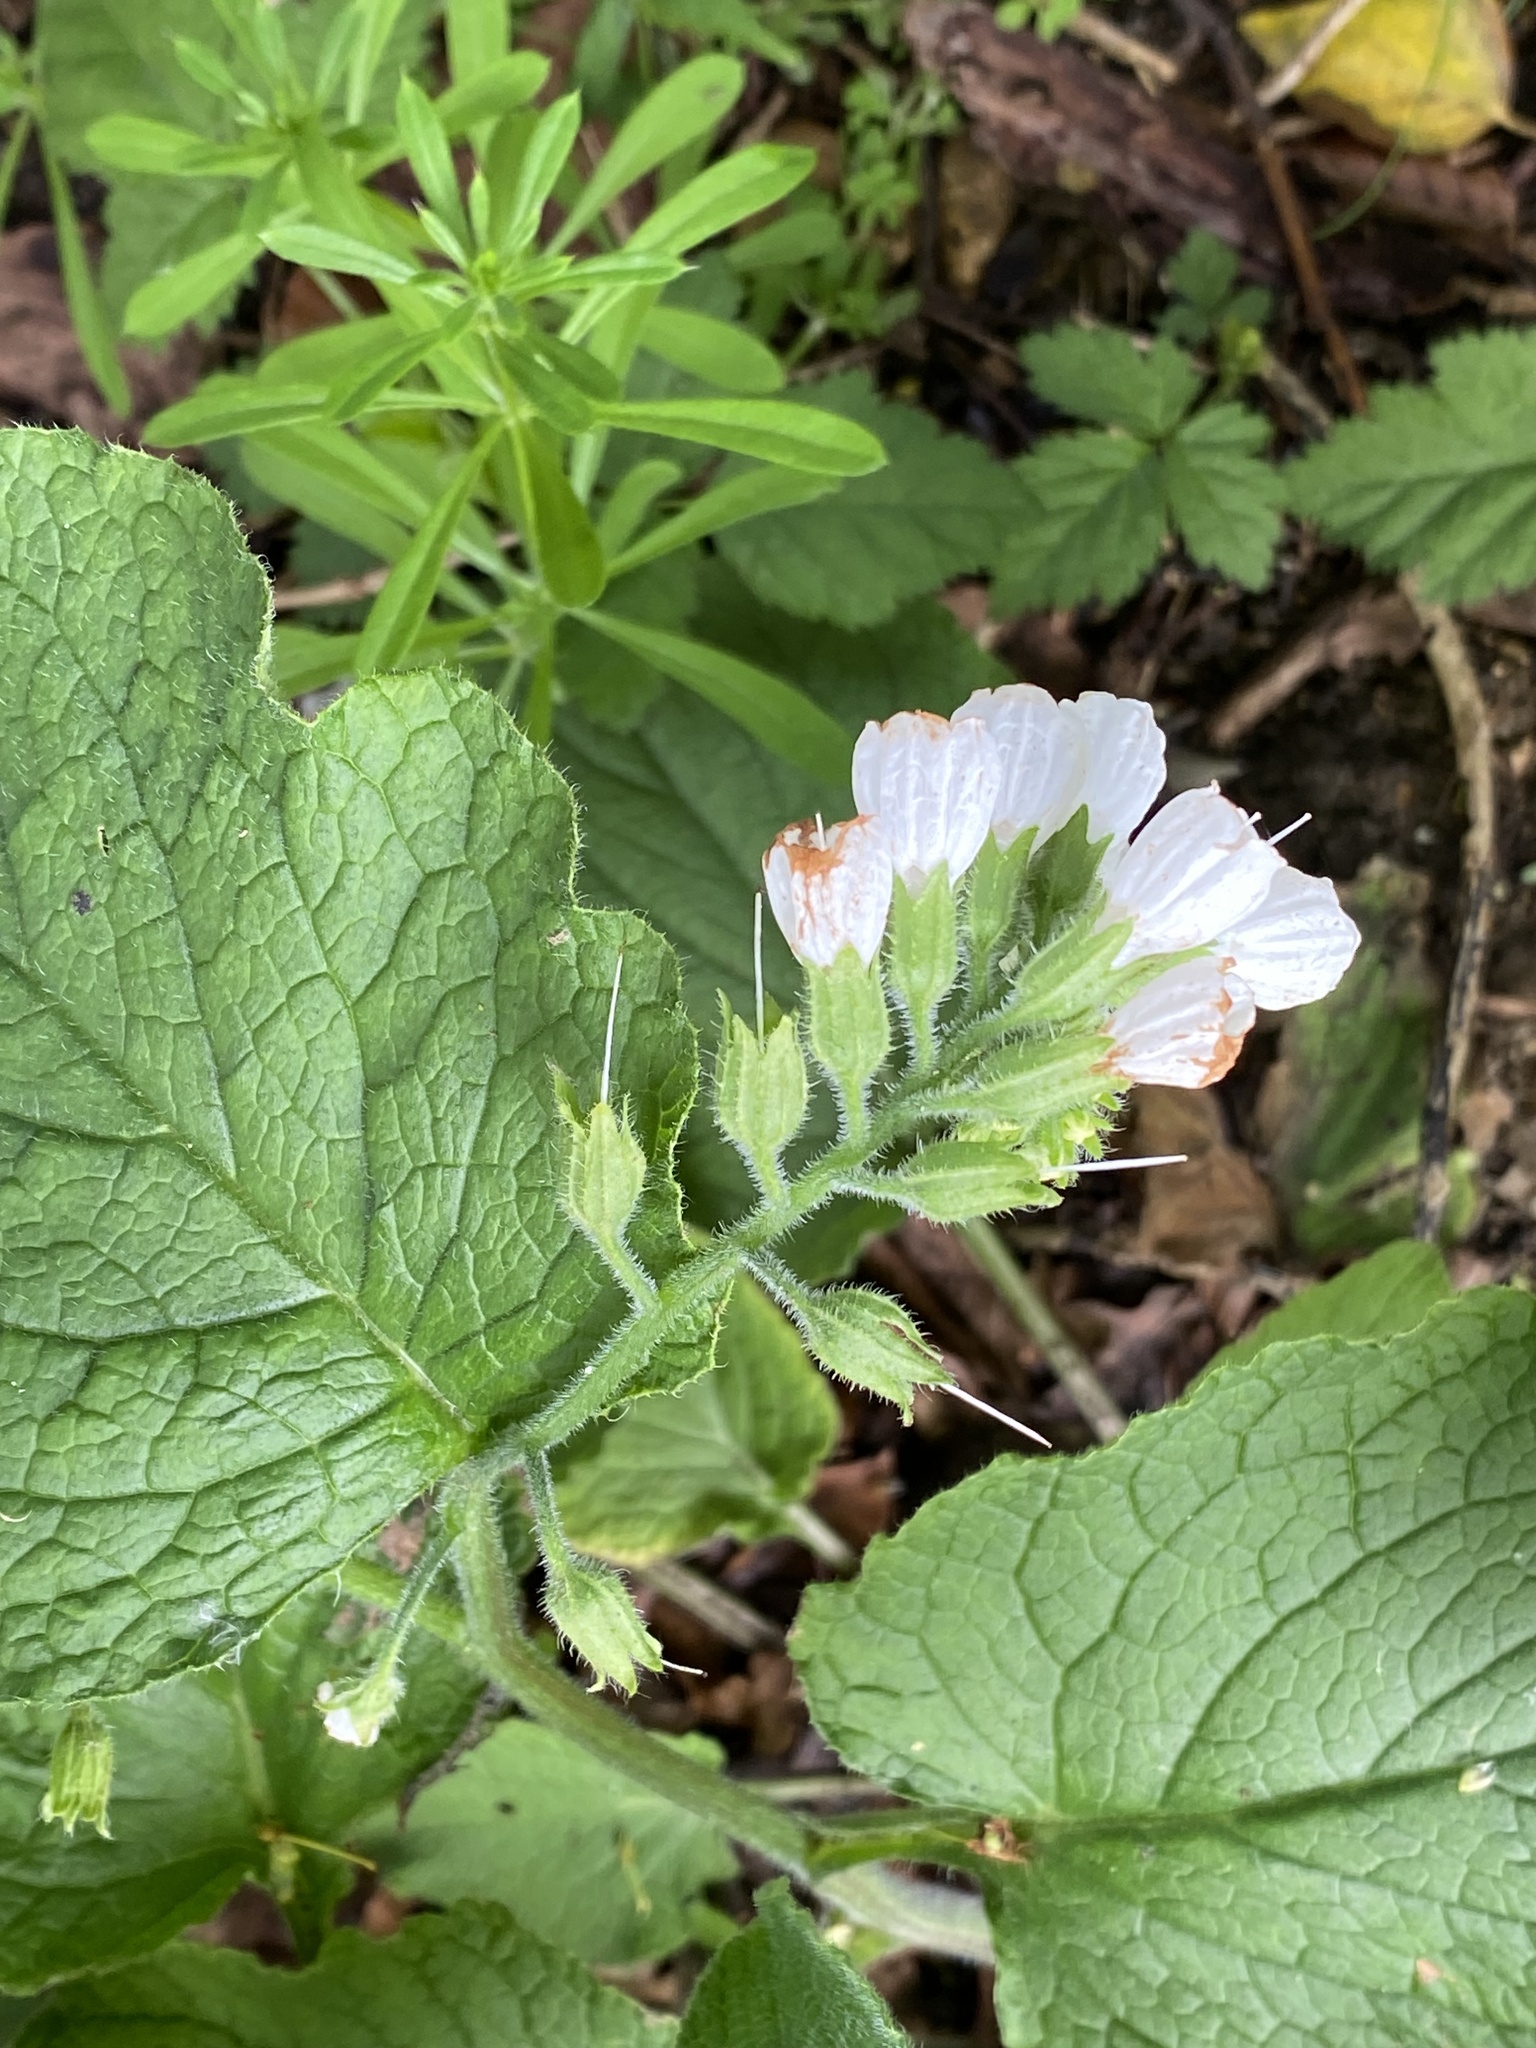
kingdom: Plantae
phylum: Tracheophyta
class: Magnoliopsida
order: Boraginales
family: Boraginaceae
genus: Symphytum
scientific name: Symphytum orientale
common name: White comfrey
